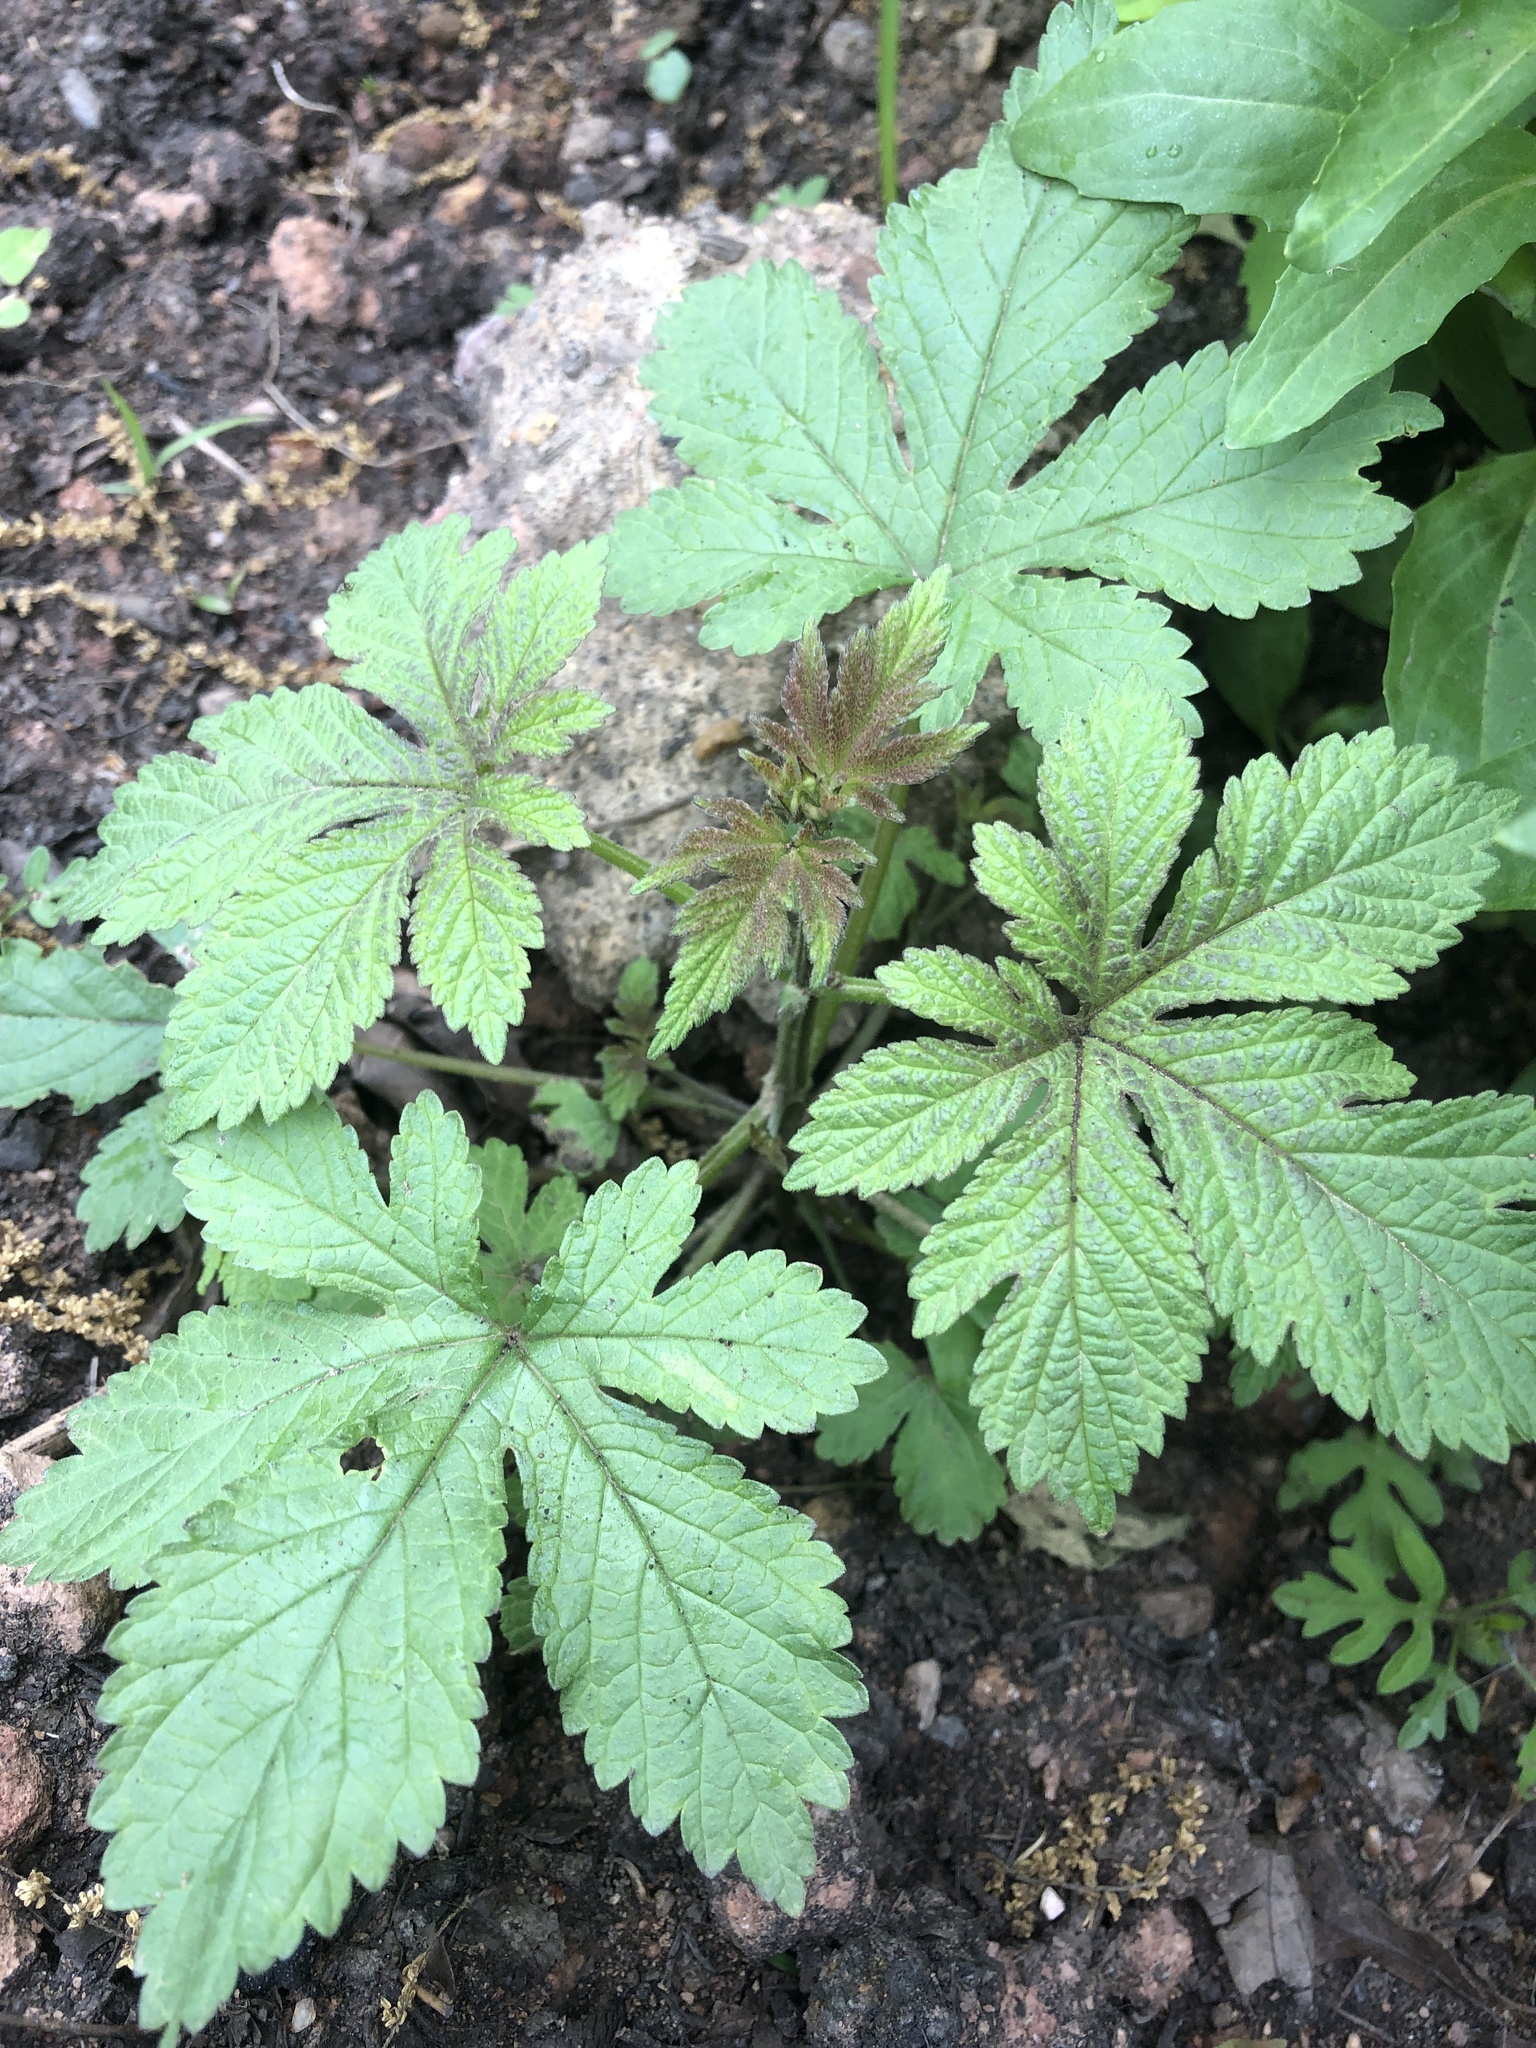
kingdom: Plantae
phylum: Tracheophyta
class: Magnoliopsida
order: Rosales
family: Cannabaceae
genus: Humulus
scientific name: Humulus scandens
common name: Japanese hop
